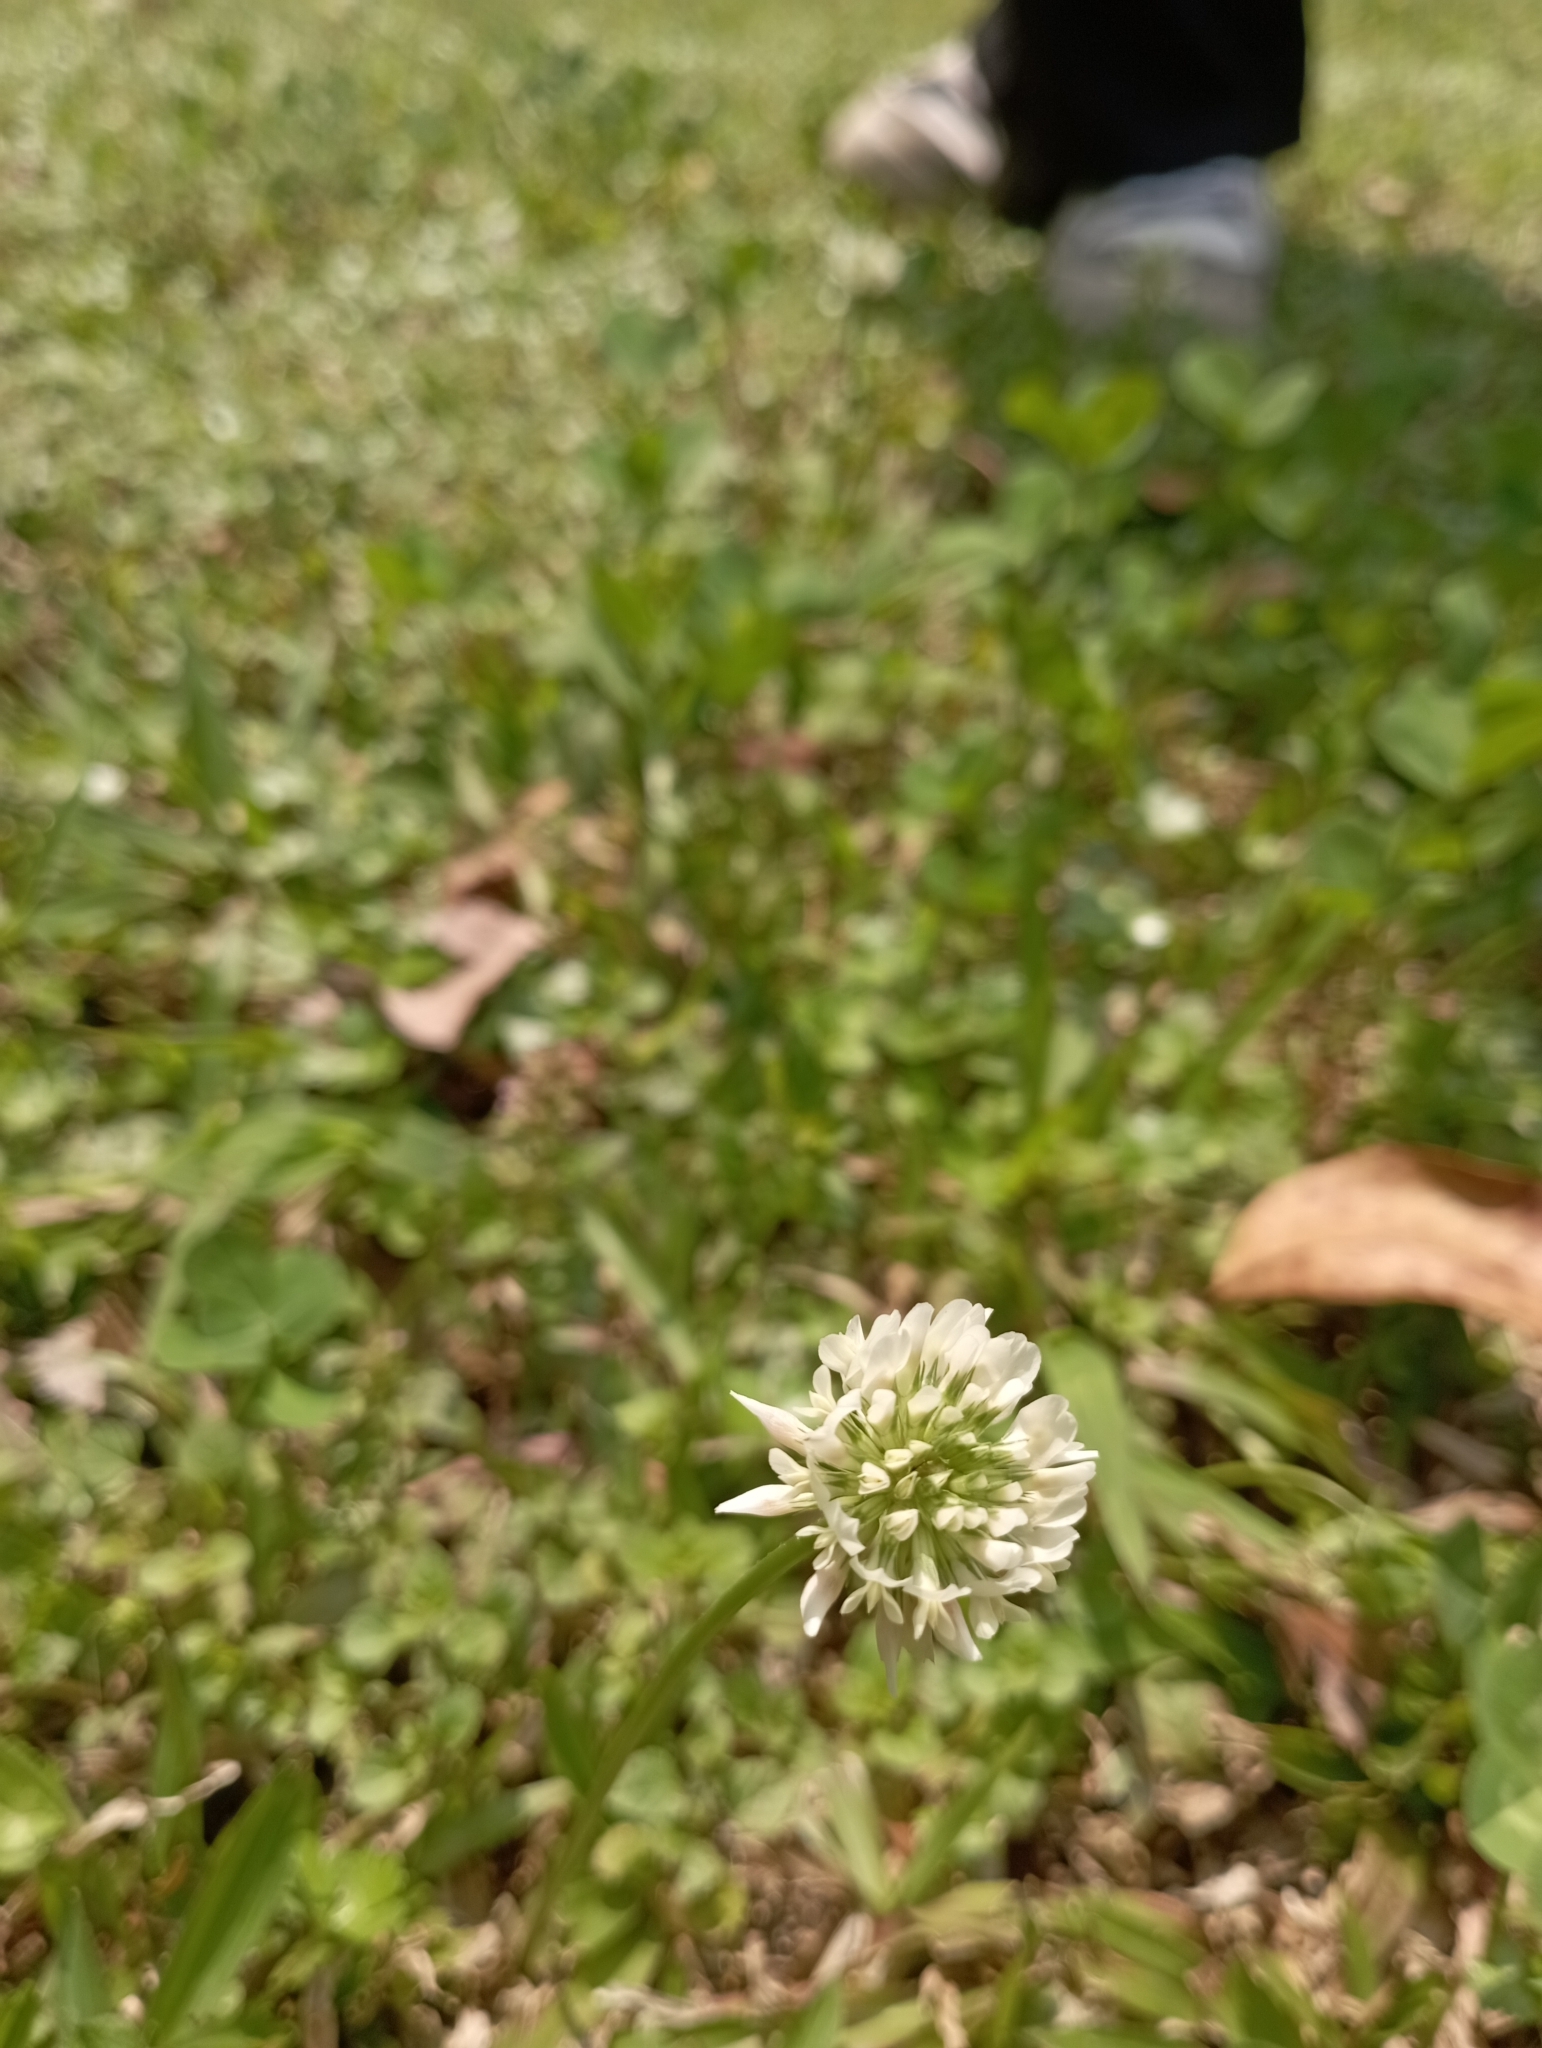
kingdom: Plantae
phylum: Tracheophyta
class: Magnoliopsida
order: Fabales
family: Fabaceae
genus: Trifolium
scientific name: Trifolium repens
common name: White clover
